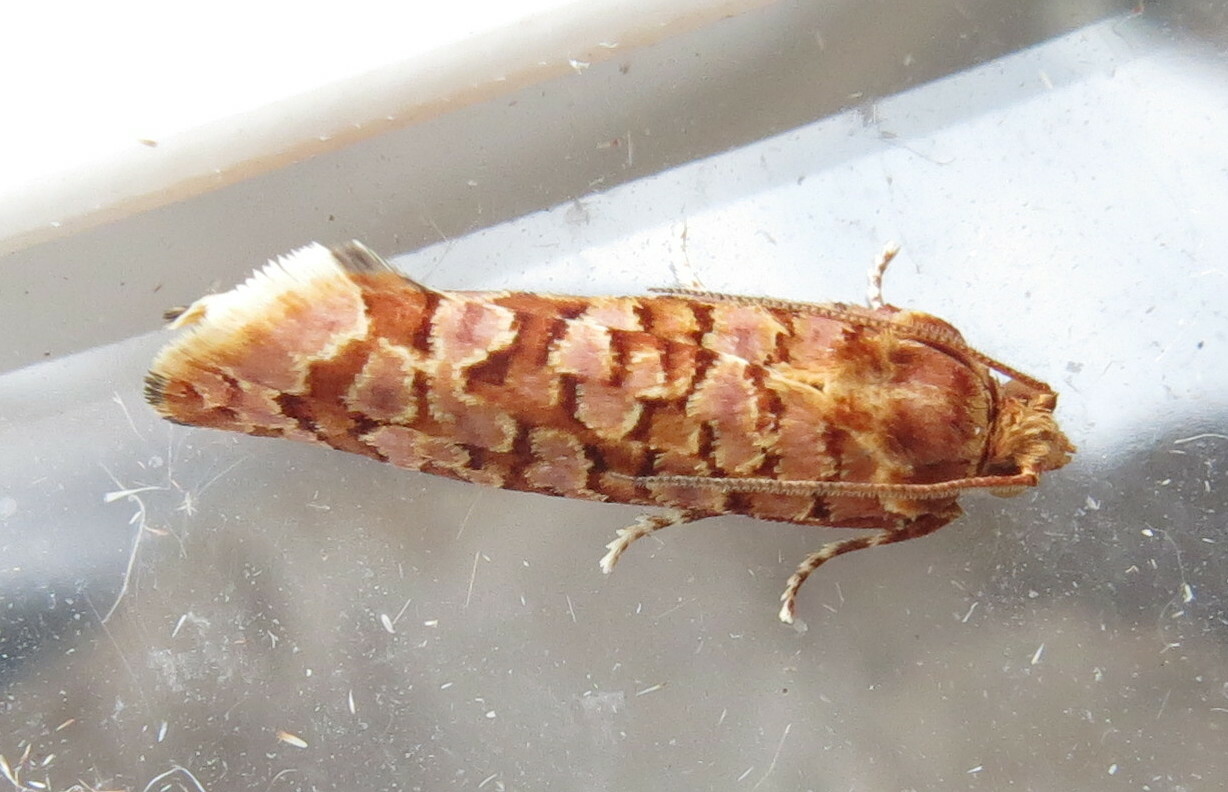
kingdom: Animalia
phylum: Arthropoda
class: Insecta
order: Lepidoptera
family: Tortricidae
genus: Lozotaeniodes
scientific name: Lozotaeniodes formosana
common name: Orange pine twist
